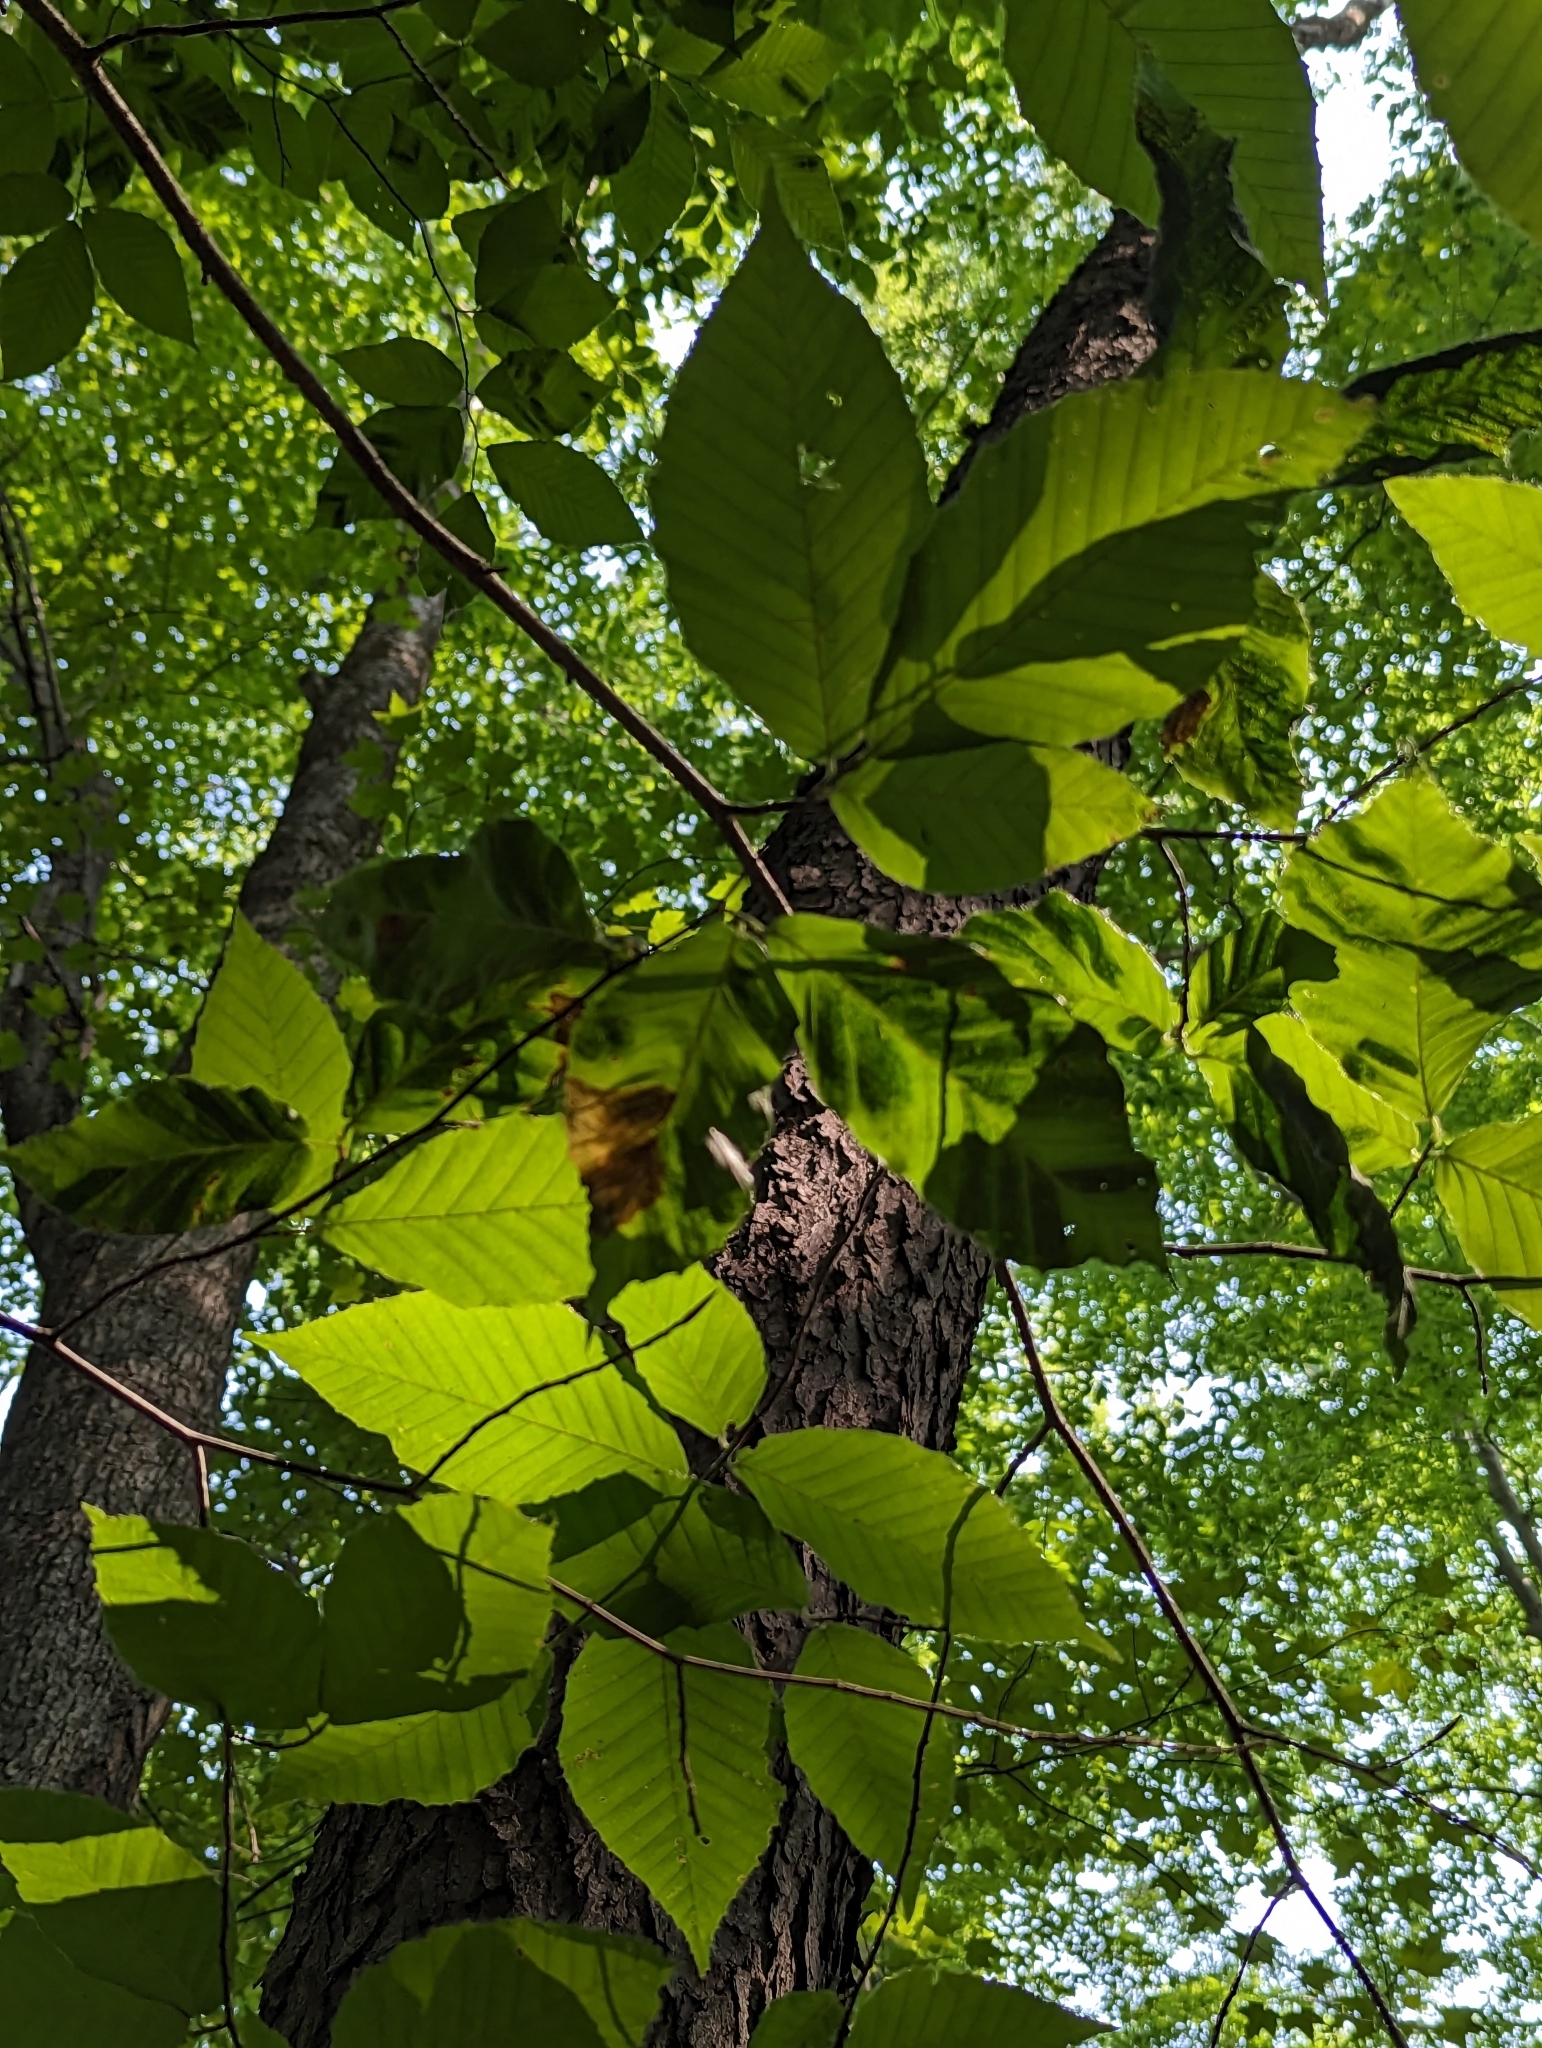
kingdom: Animalia
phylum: Nematoda
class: Chromadorea
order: Rhabditida
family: Anguinidae
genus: Litylenchus
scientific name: Litylenchus crenatae
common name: Beech leaf disease
